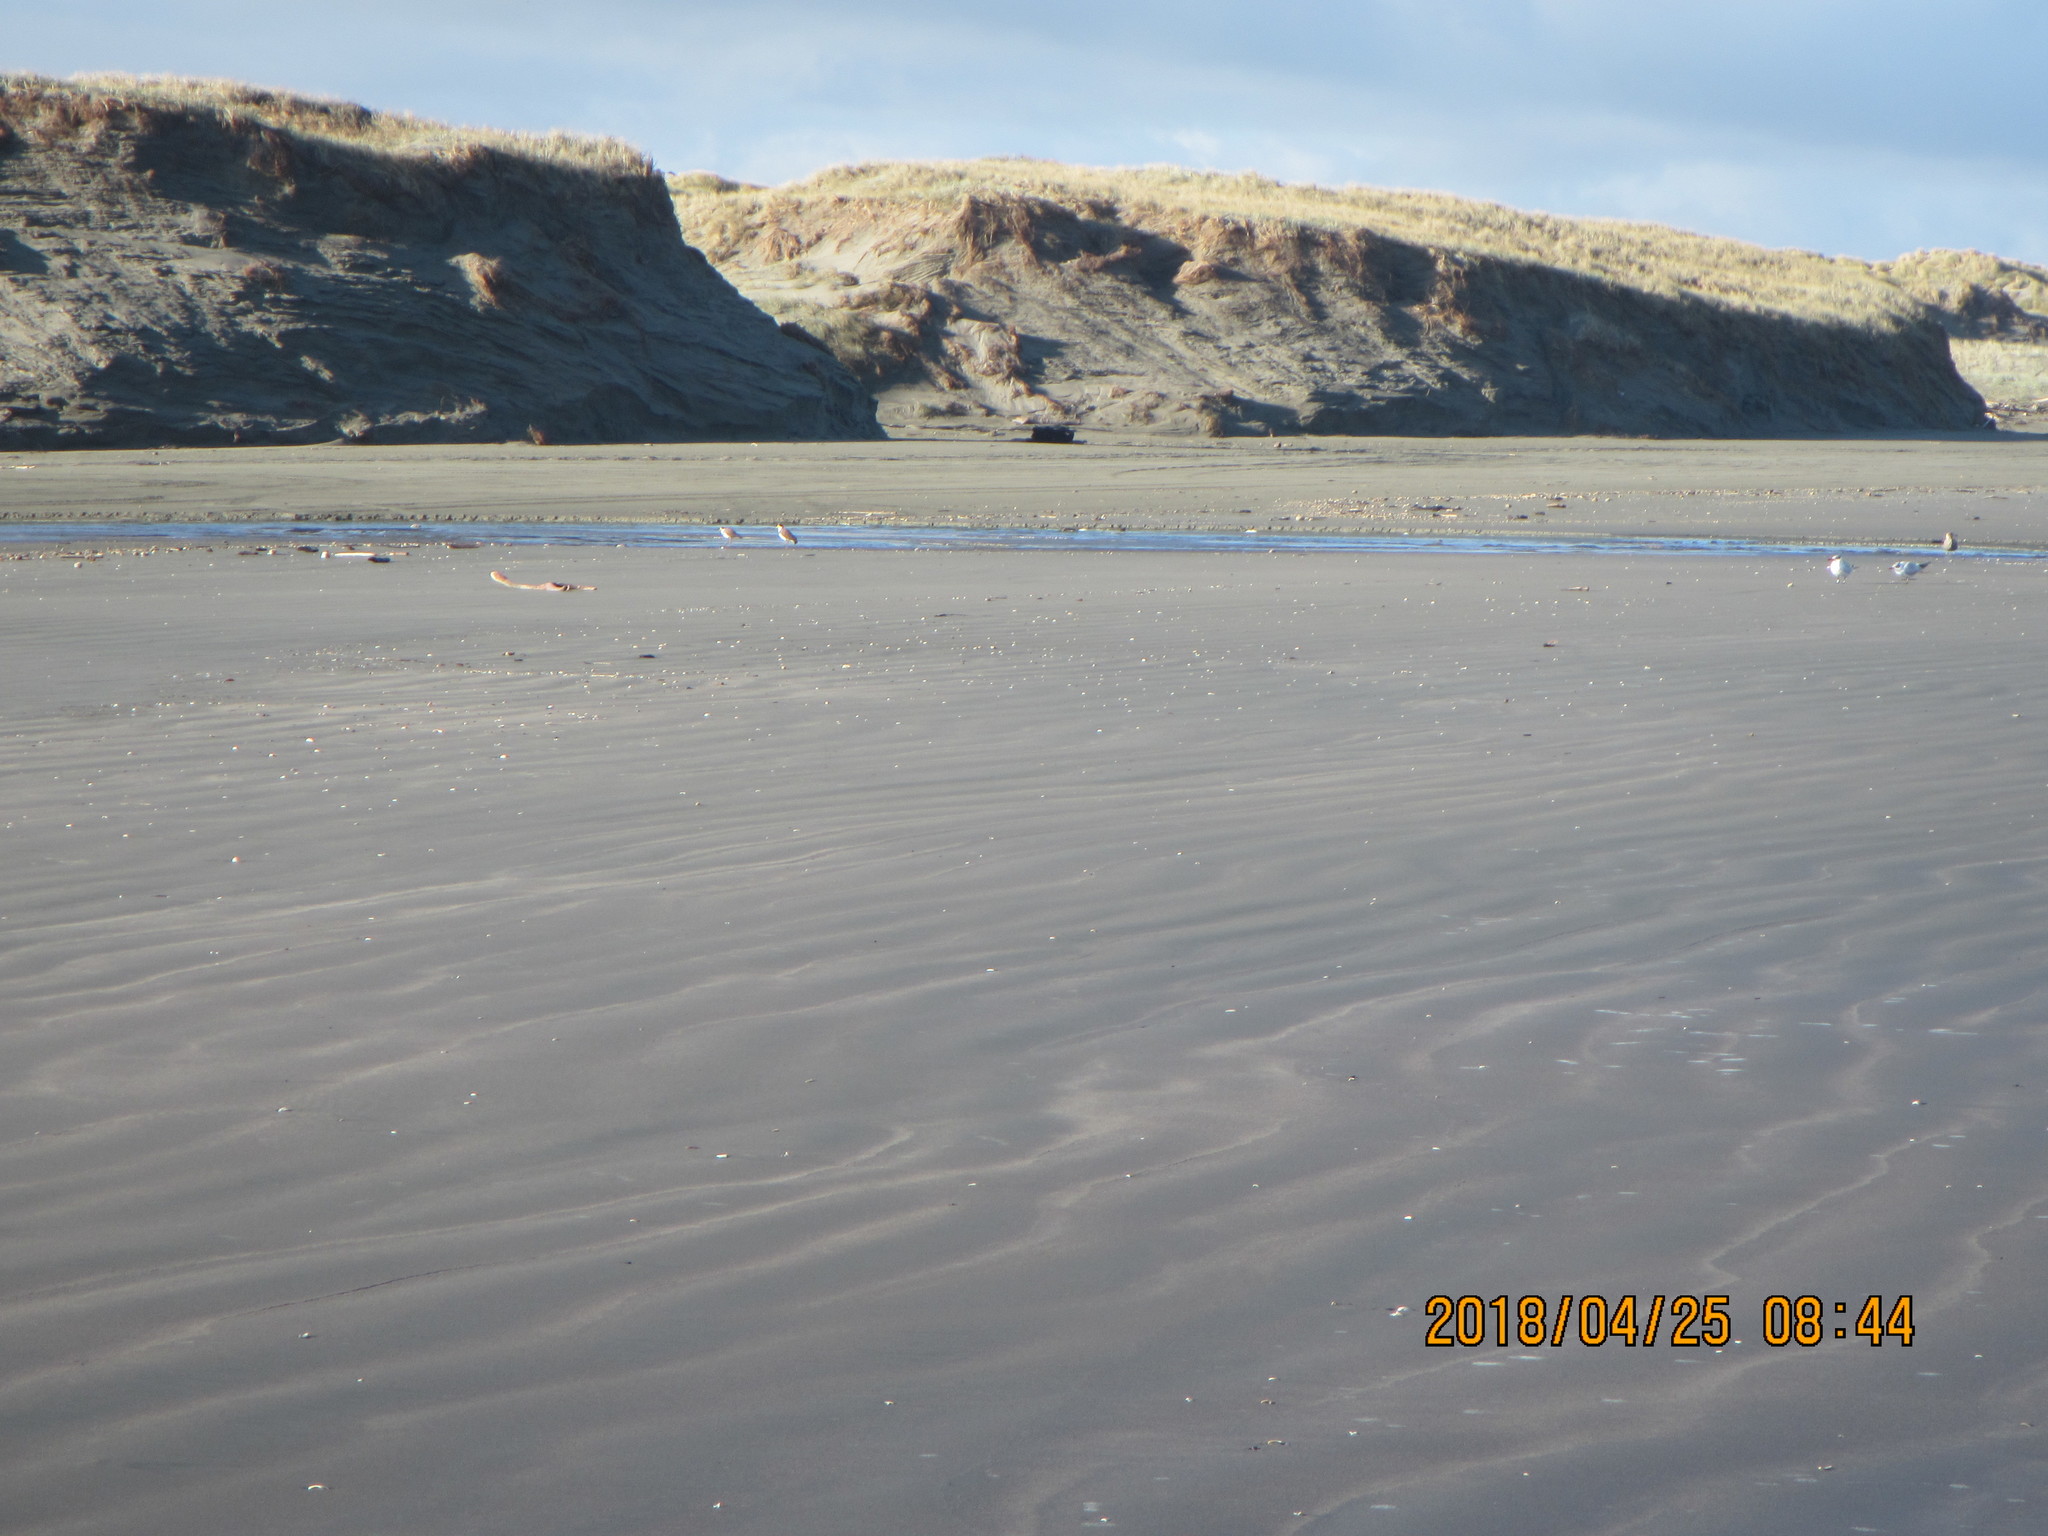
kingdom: Animalia
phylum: Chordata
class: Aves
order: Charadriiformes
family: Charadriidae
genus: Vanellus
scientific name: Vanellus miles
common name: Masked lapwing
